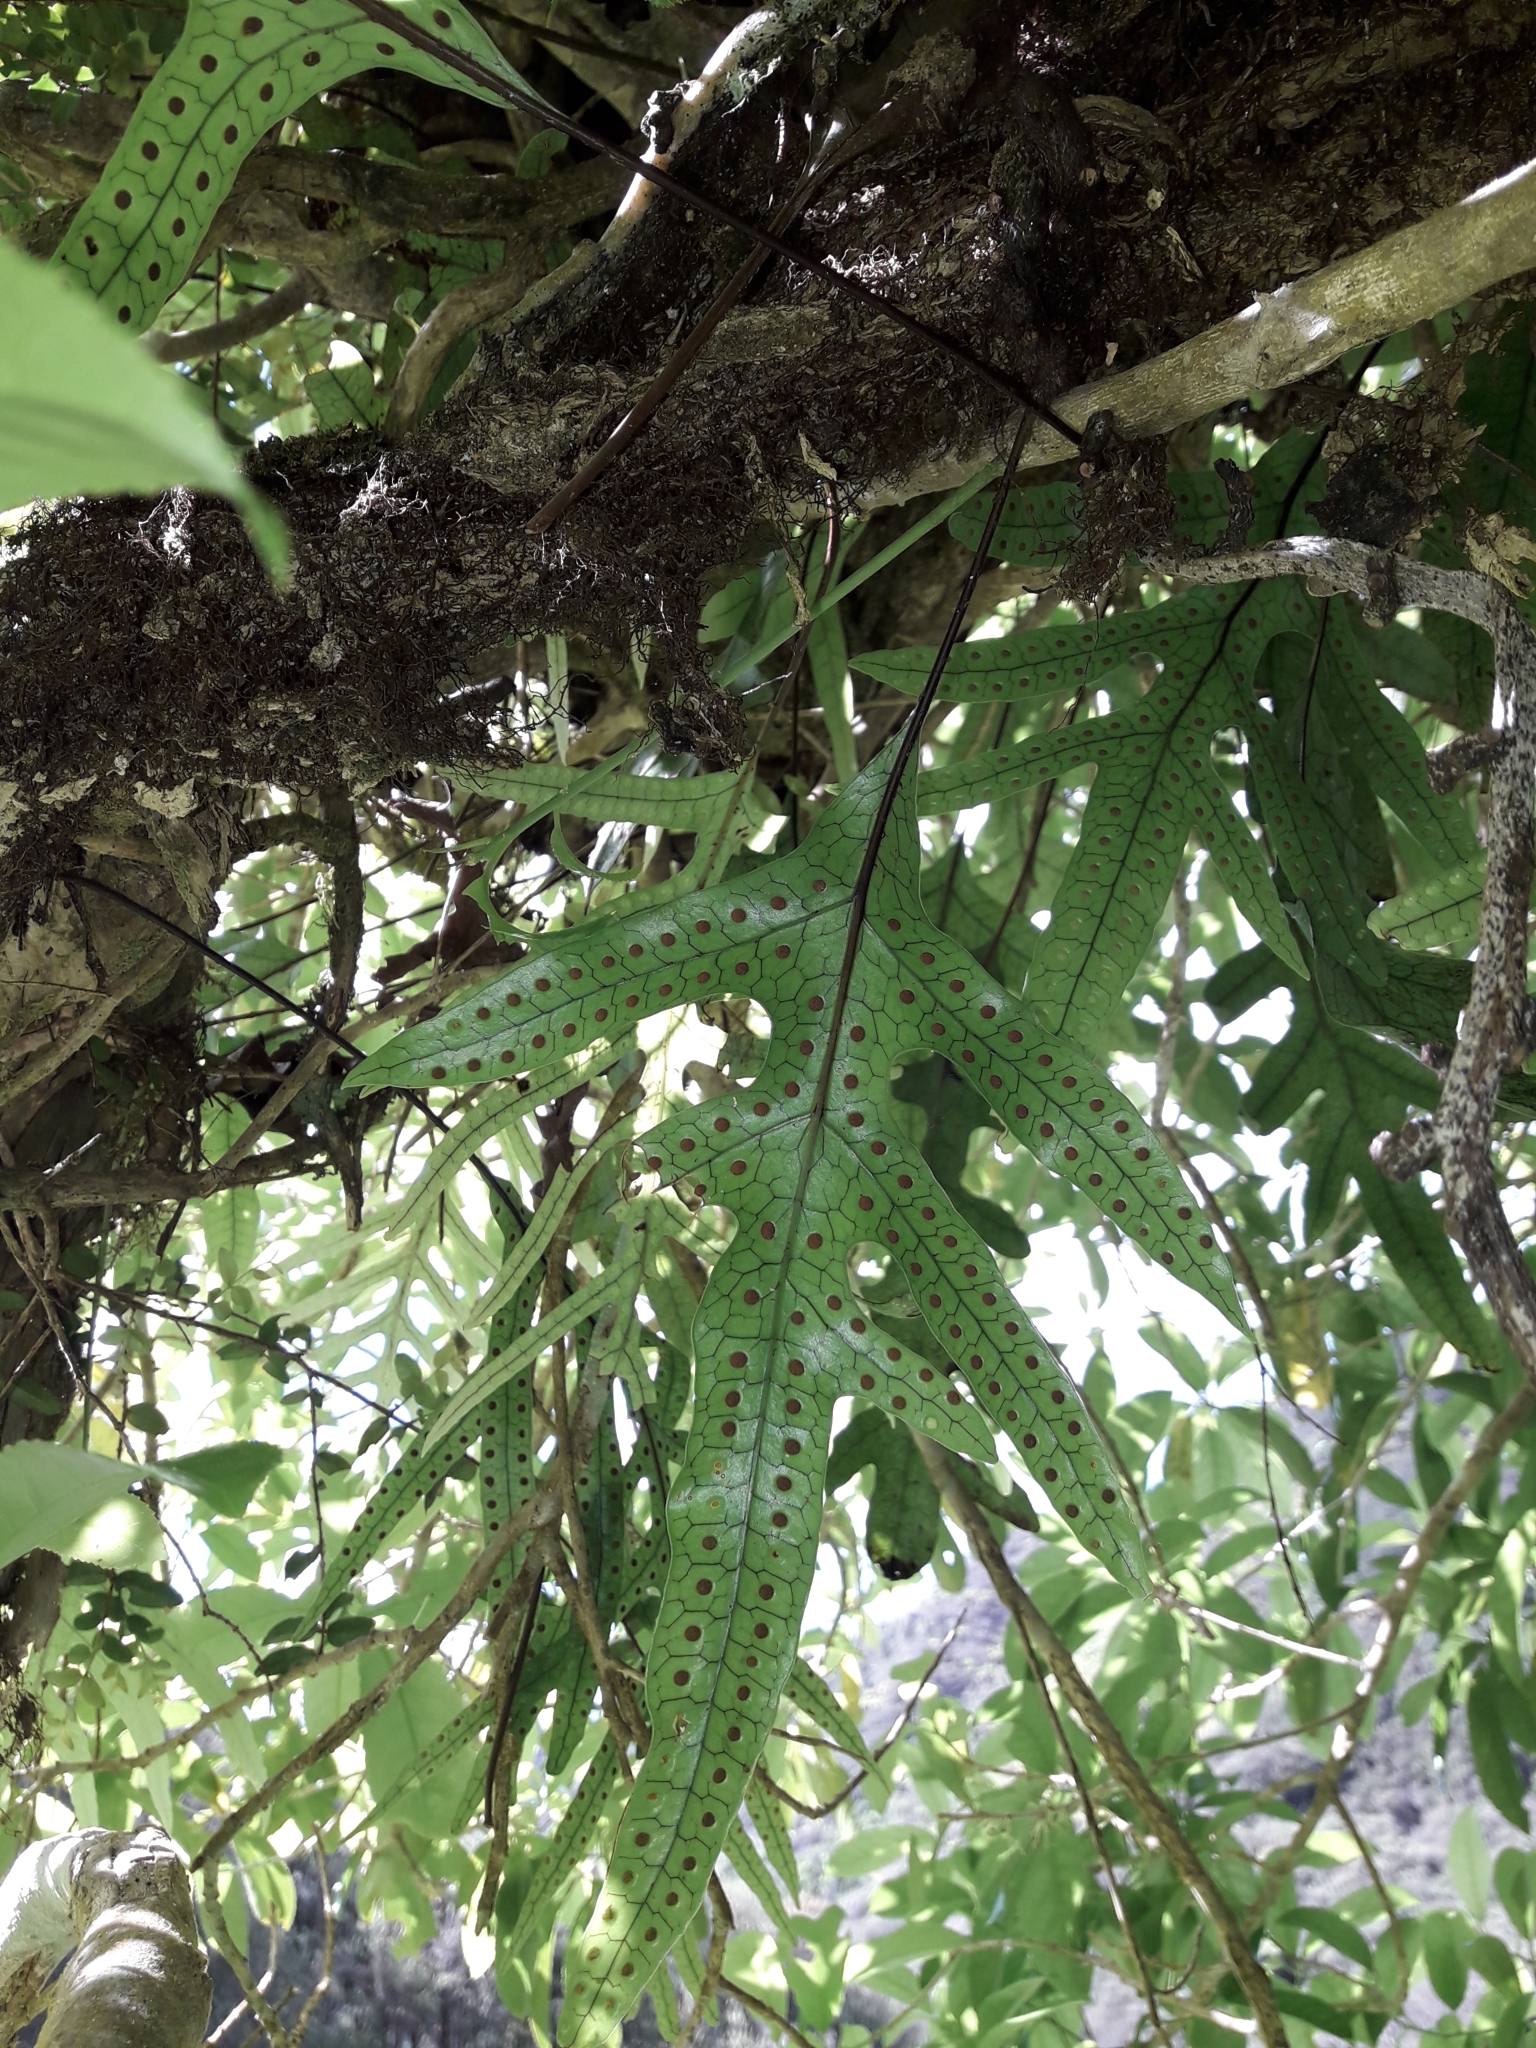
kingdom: Plantae
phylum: Tracheophyta
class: Polypodiopsida
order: Polypodiales
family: Polypodiaceae
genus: Lecanopteris
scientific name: Lecanopteris pustulata
